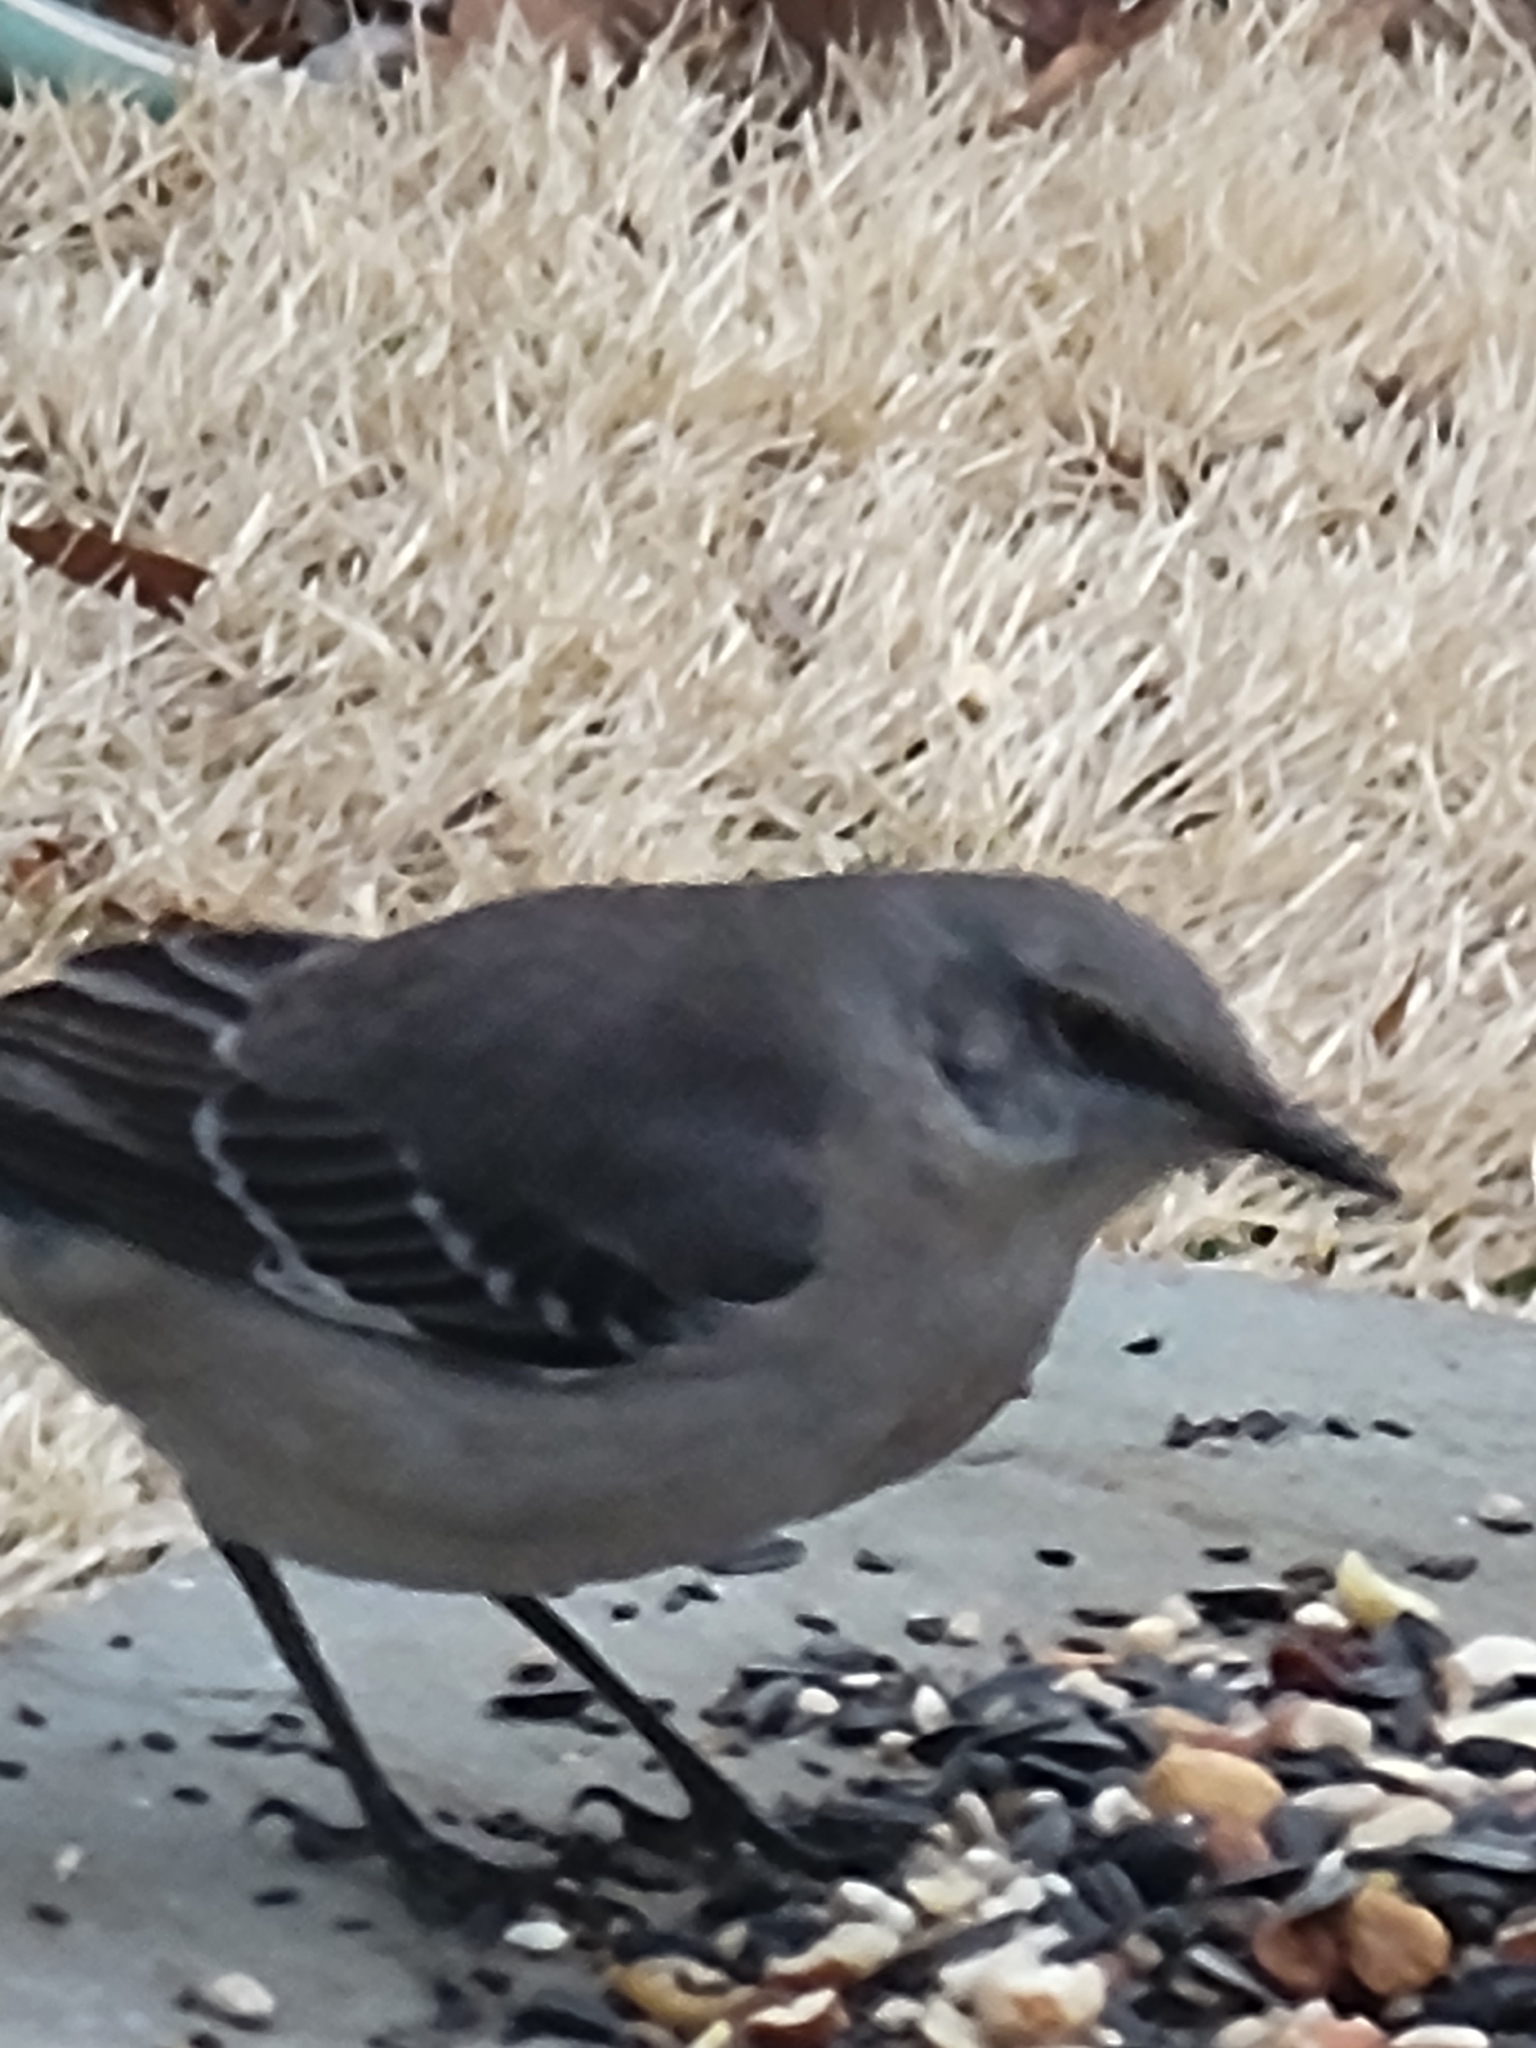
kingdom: Animalia
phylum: Chordata
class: Aves
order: Passeriformes
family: Mimidae
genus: Mimus
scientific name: Mimus polyglottos
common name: Northern mockingbird
